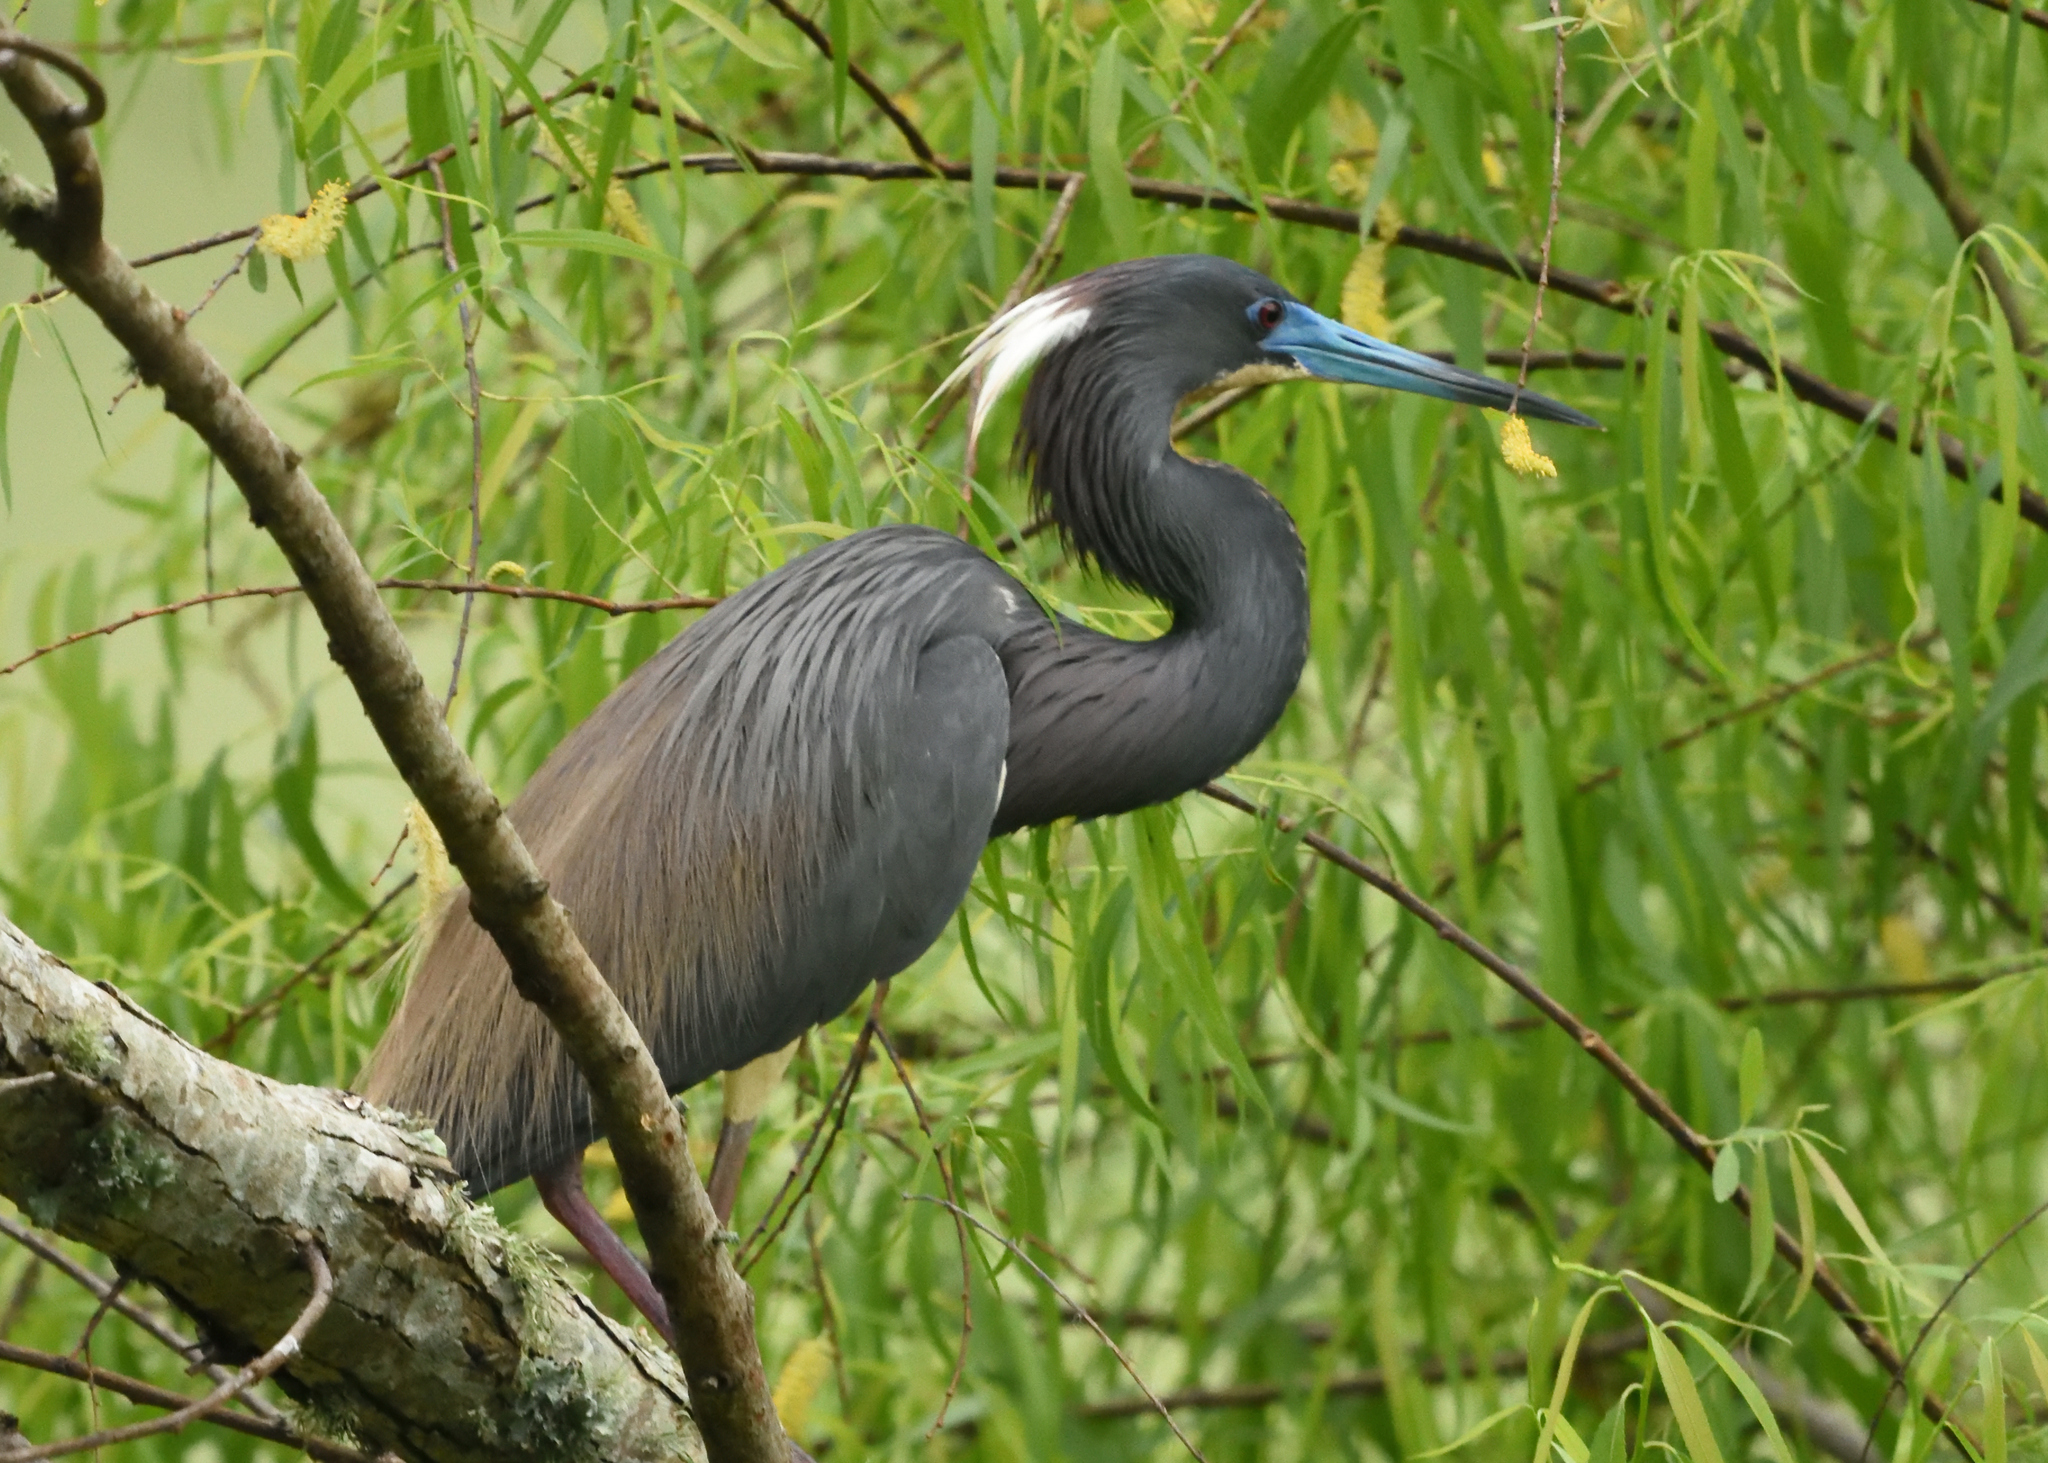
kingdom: Animalia
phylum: Chordata
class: Aves
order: Pelecaniformes
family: Ardeidae
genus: Egretta
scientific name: Egretta tricolor
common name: Tricolored heron
